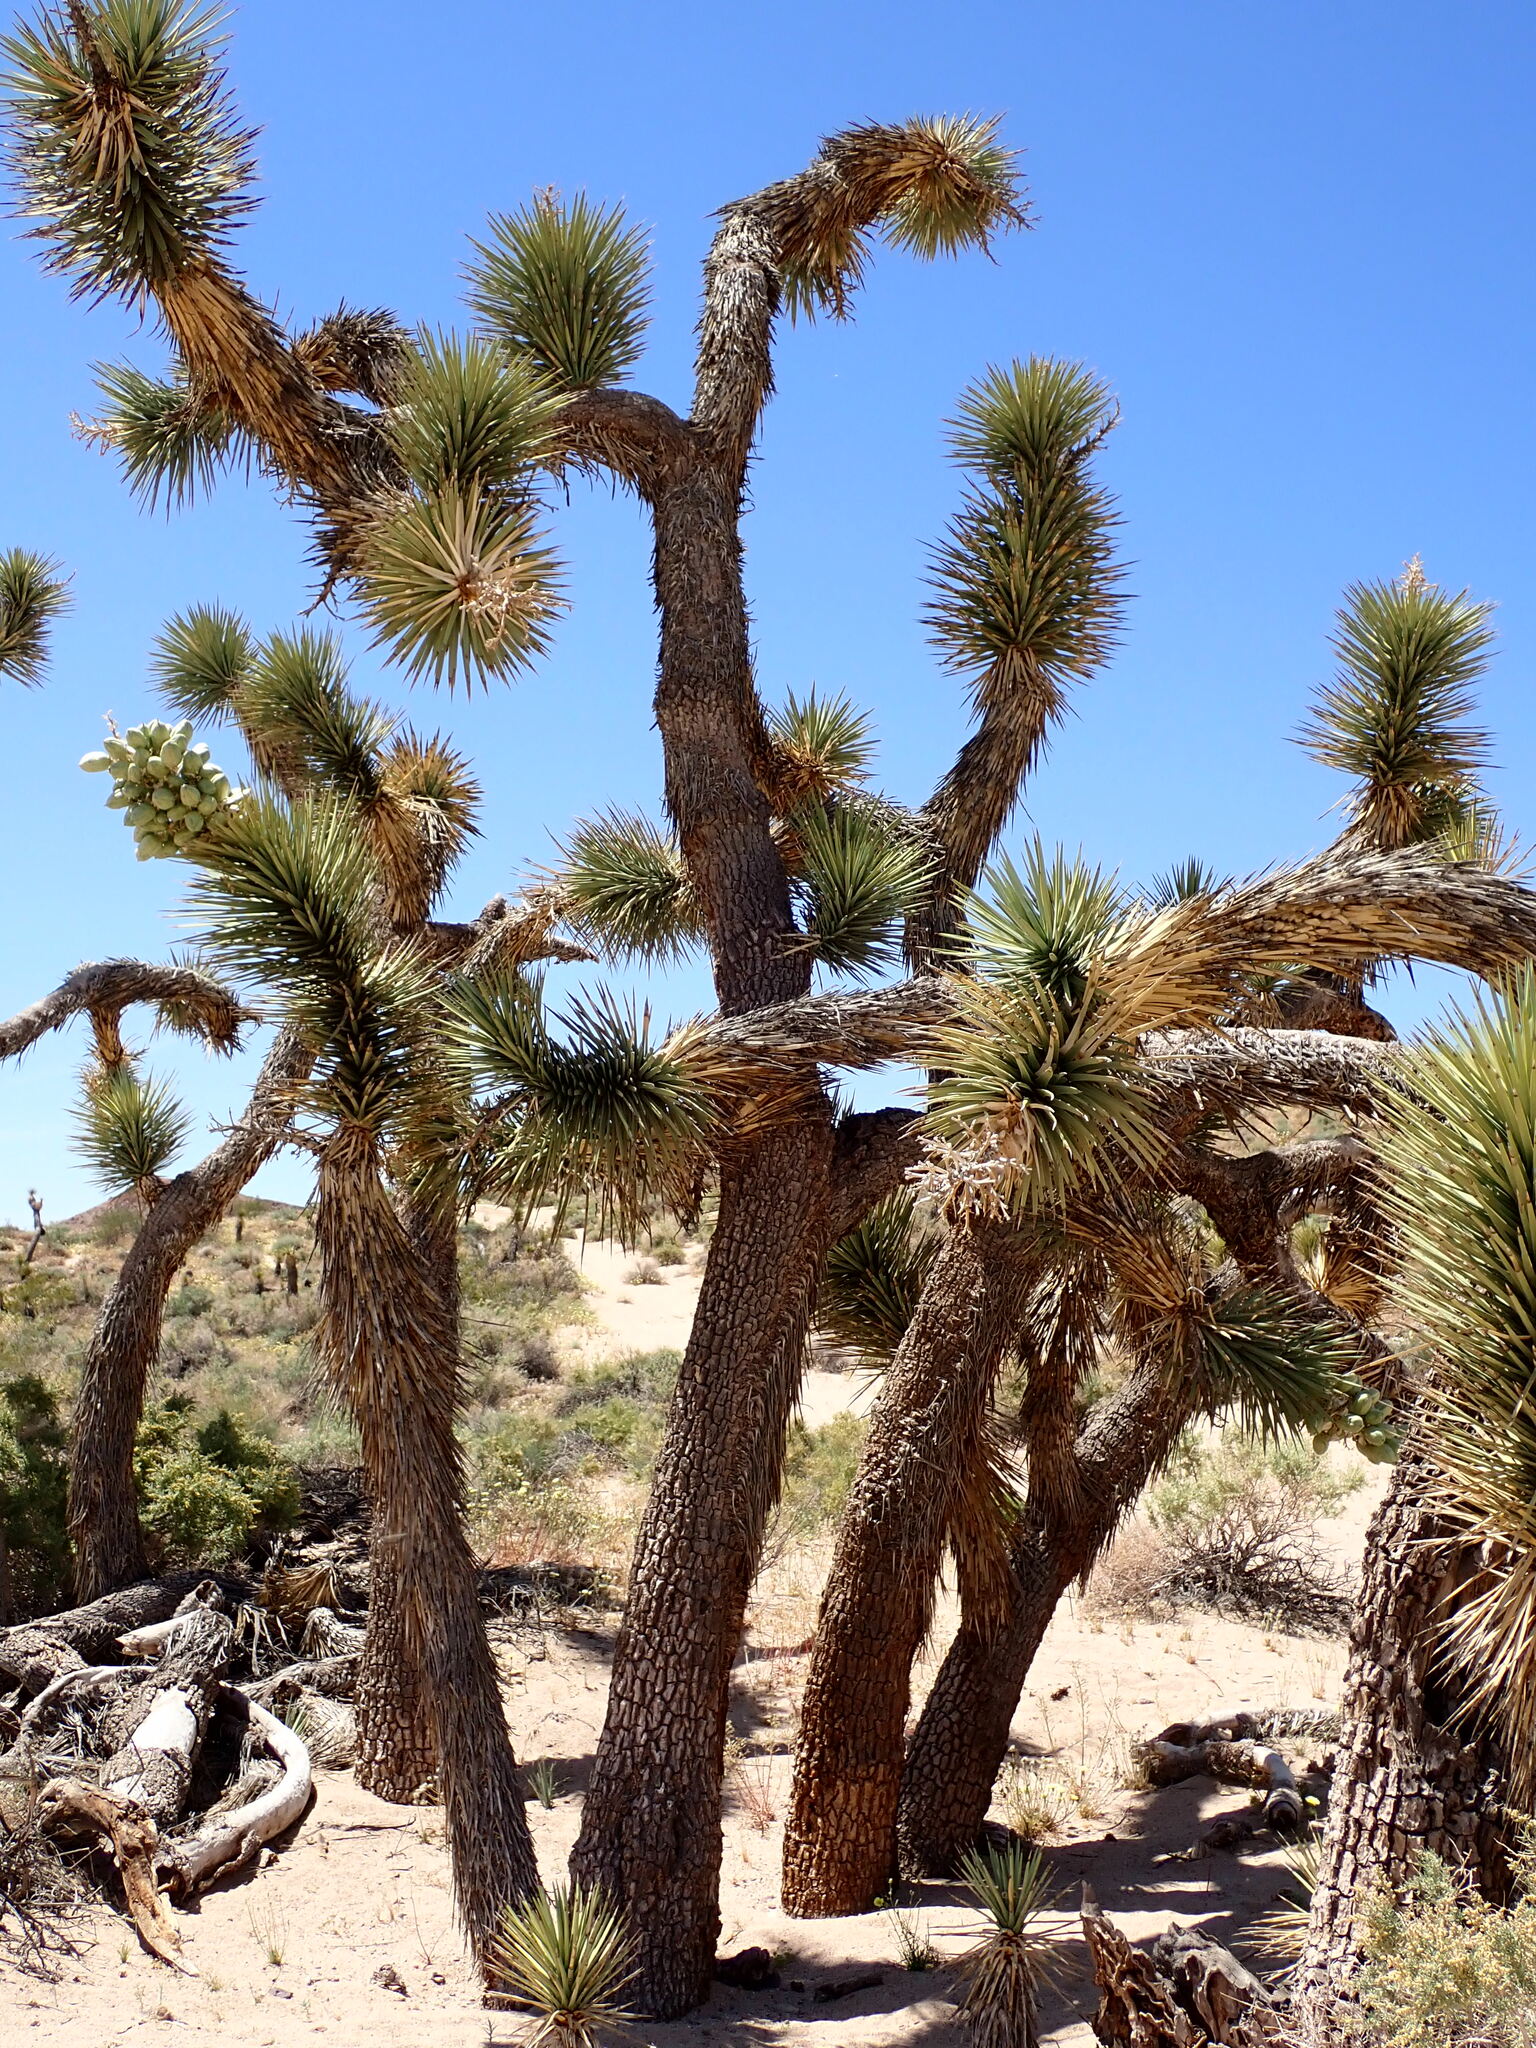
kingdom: Plantae
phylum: Tracheophyta
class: Liliopsida
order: Asparagales
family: Asparagaceae
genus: Yucca
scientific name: Yucca brevifolia
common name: Joshua tree
